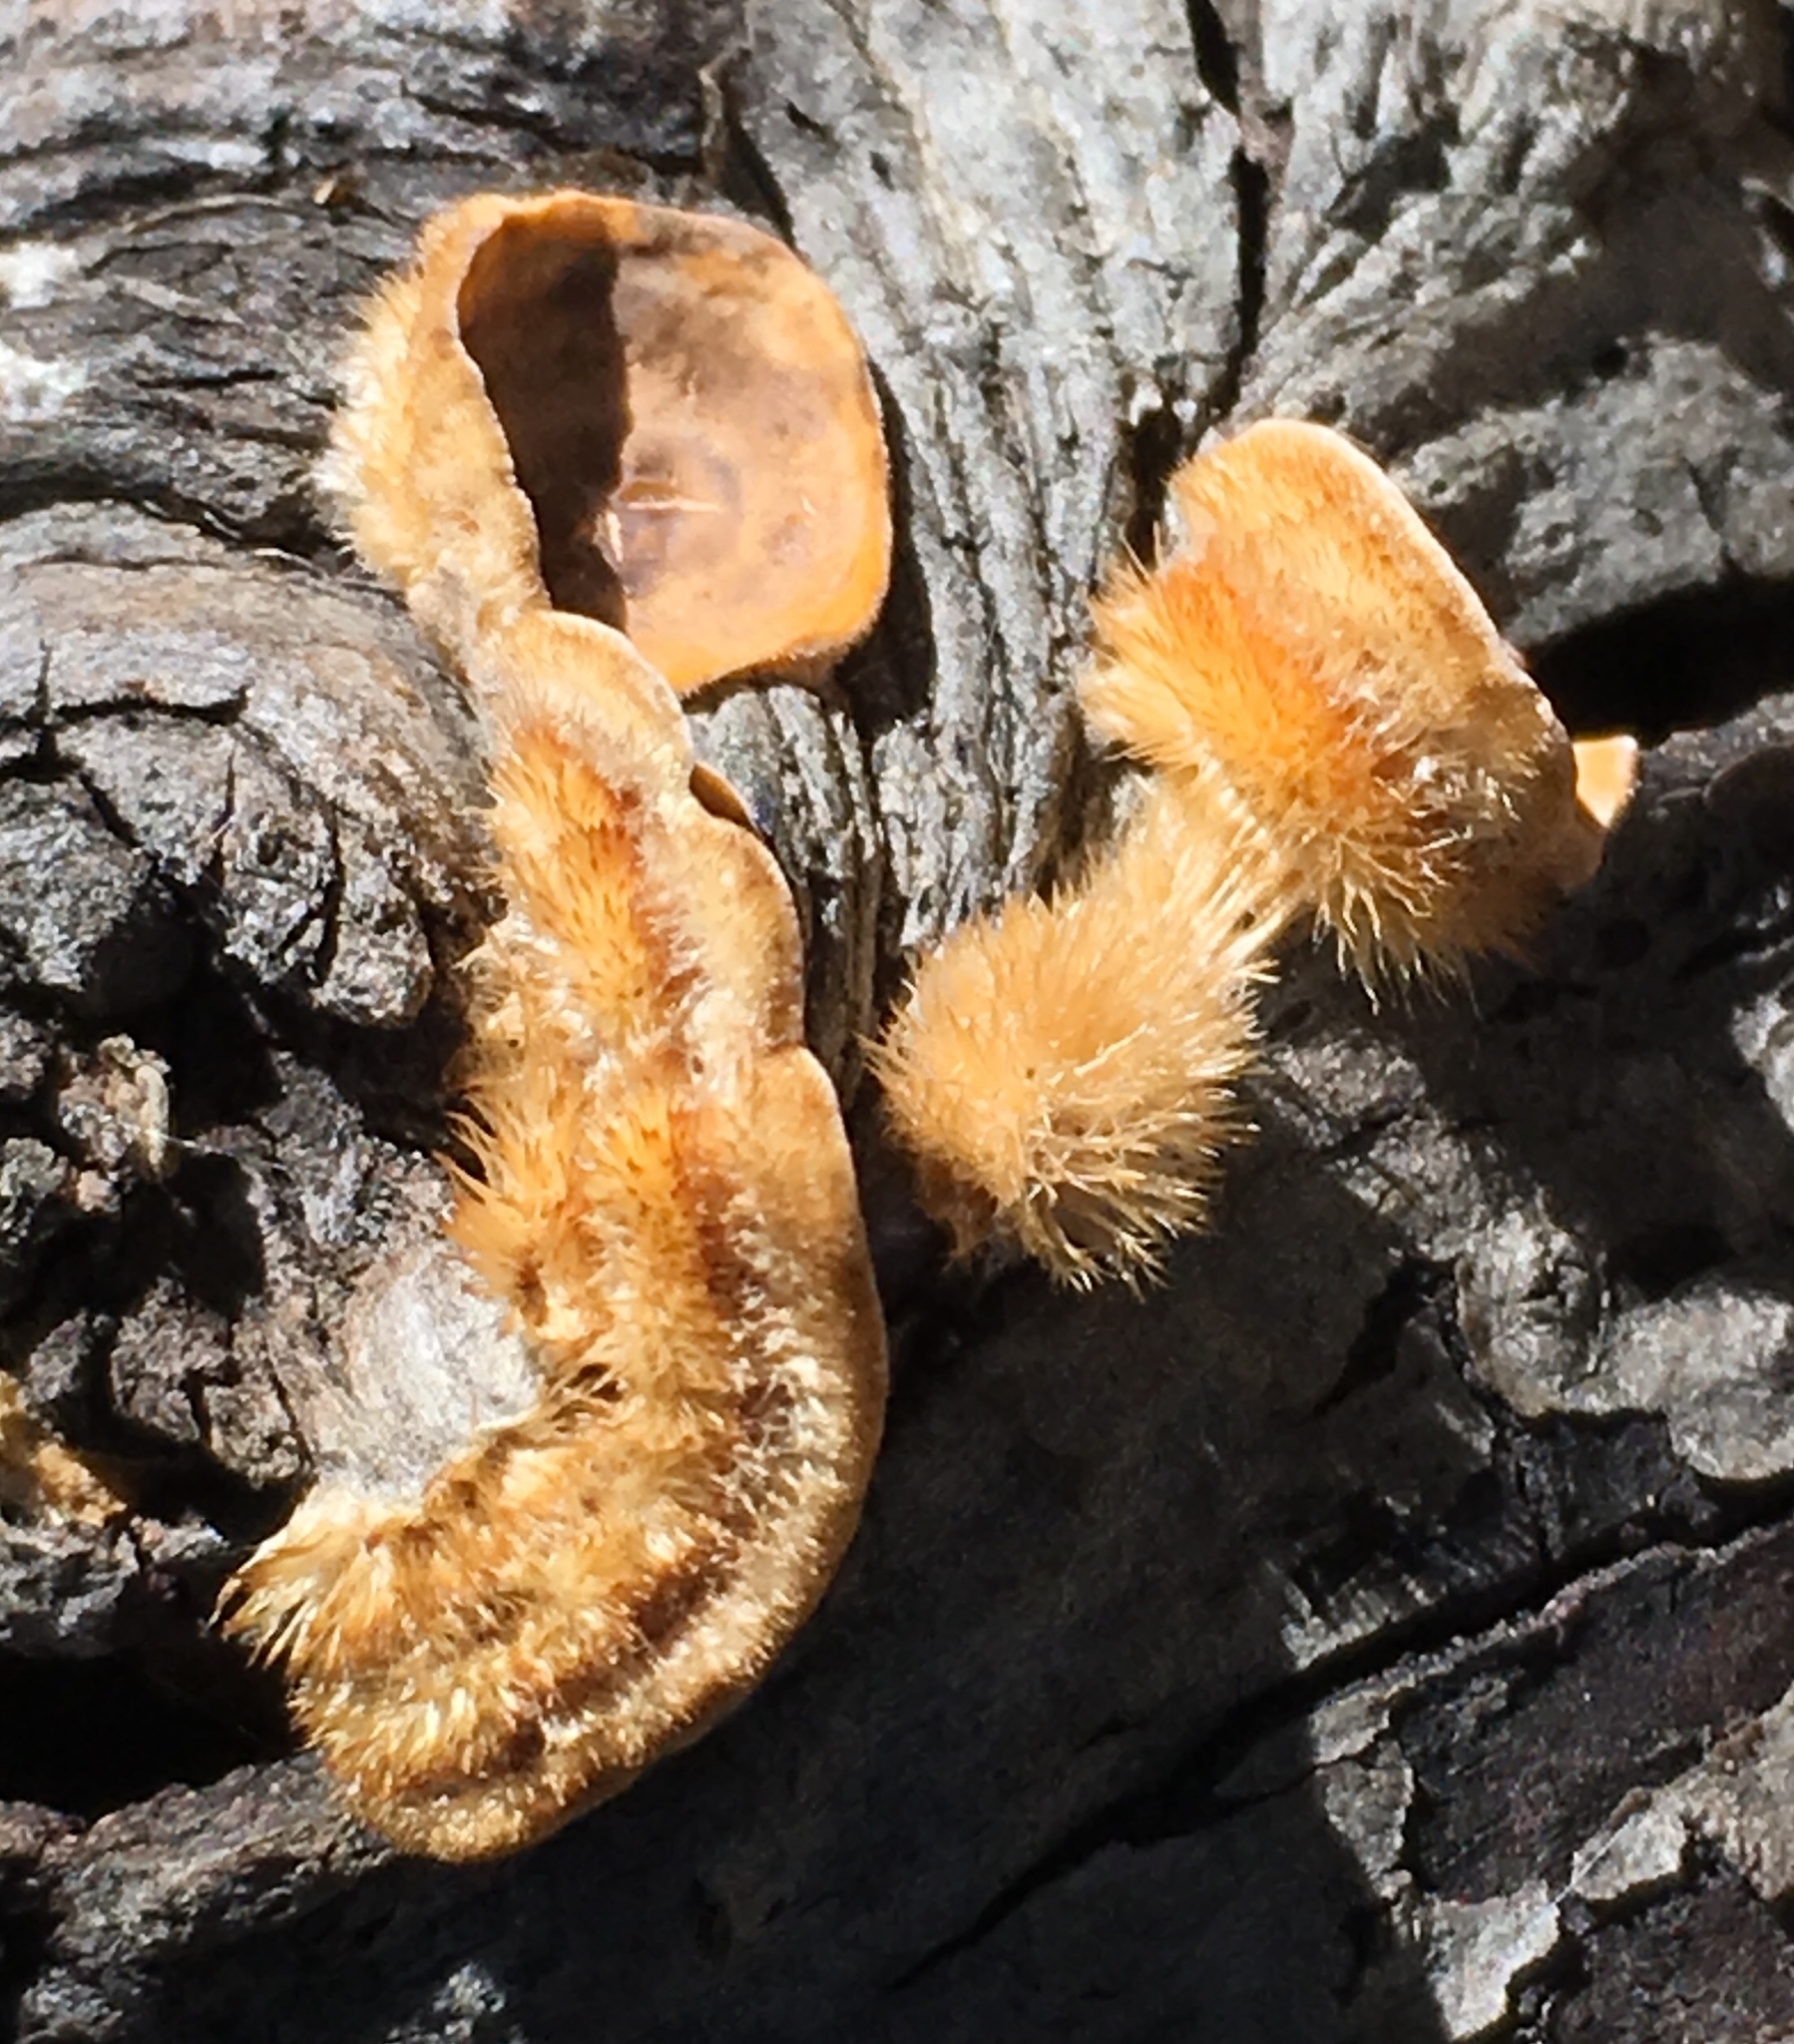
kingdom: Fungi
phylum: Basidiomycota
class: Agaricomycetes
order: Russulales
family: Stereaceae
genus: Stereum
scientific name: Stereum hirsutum
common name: Hairy curtain crust
